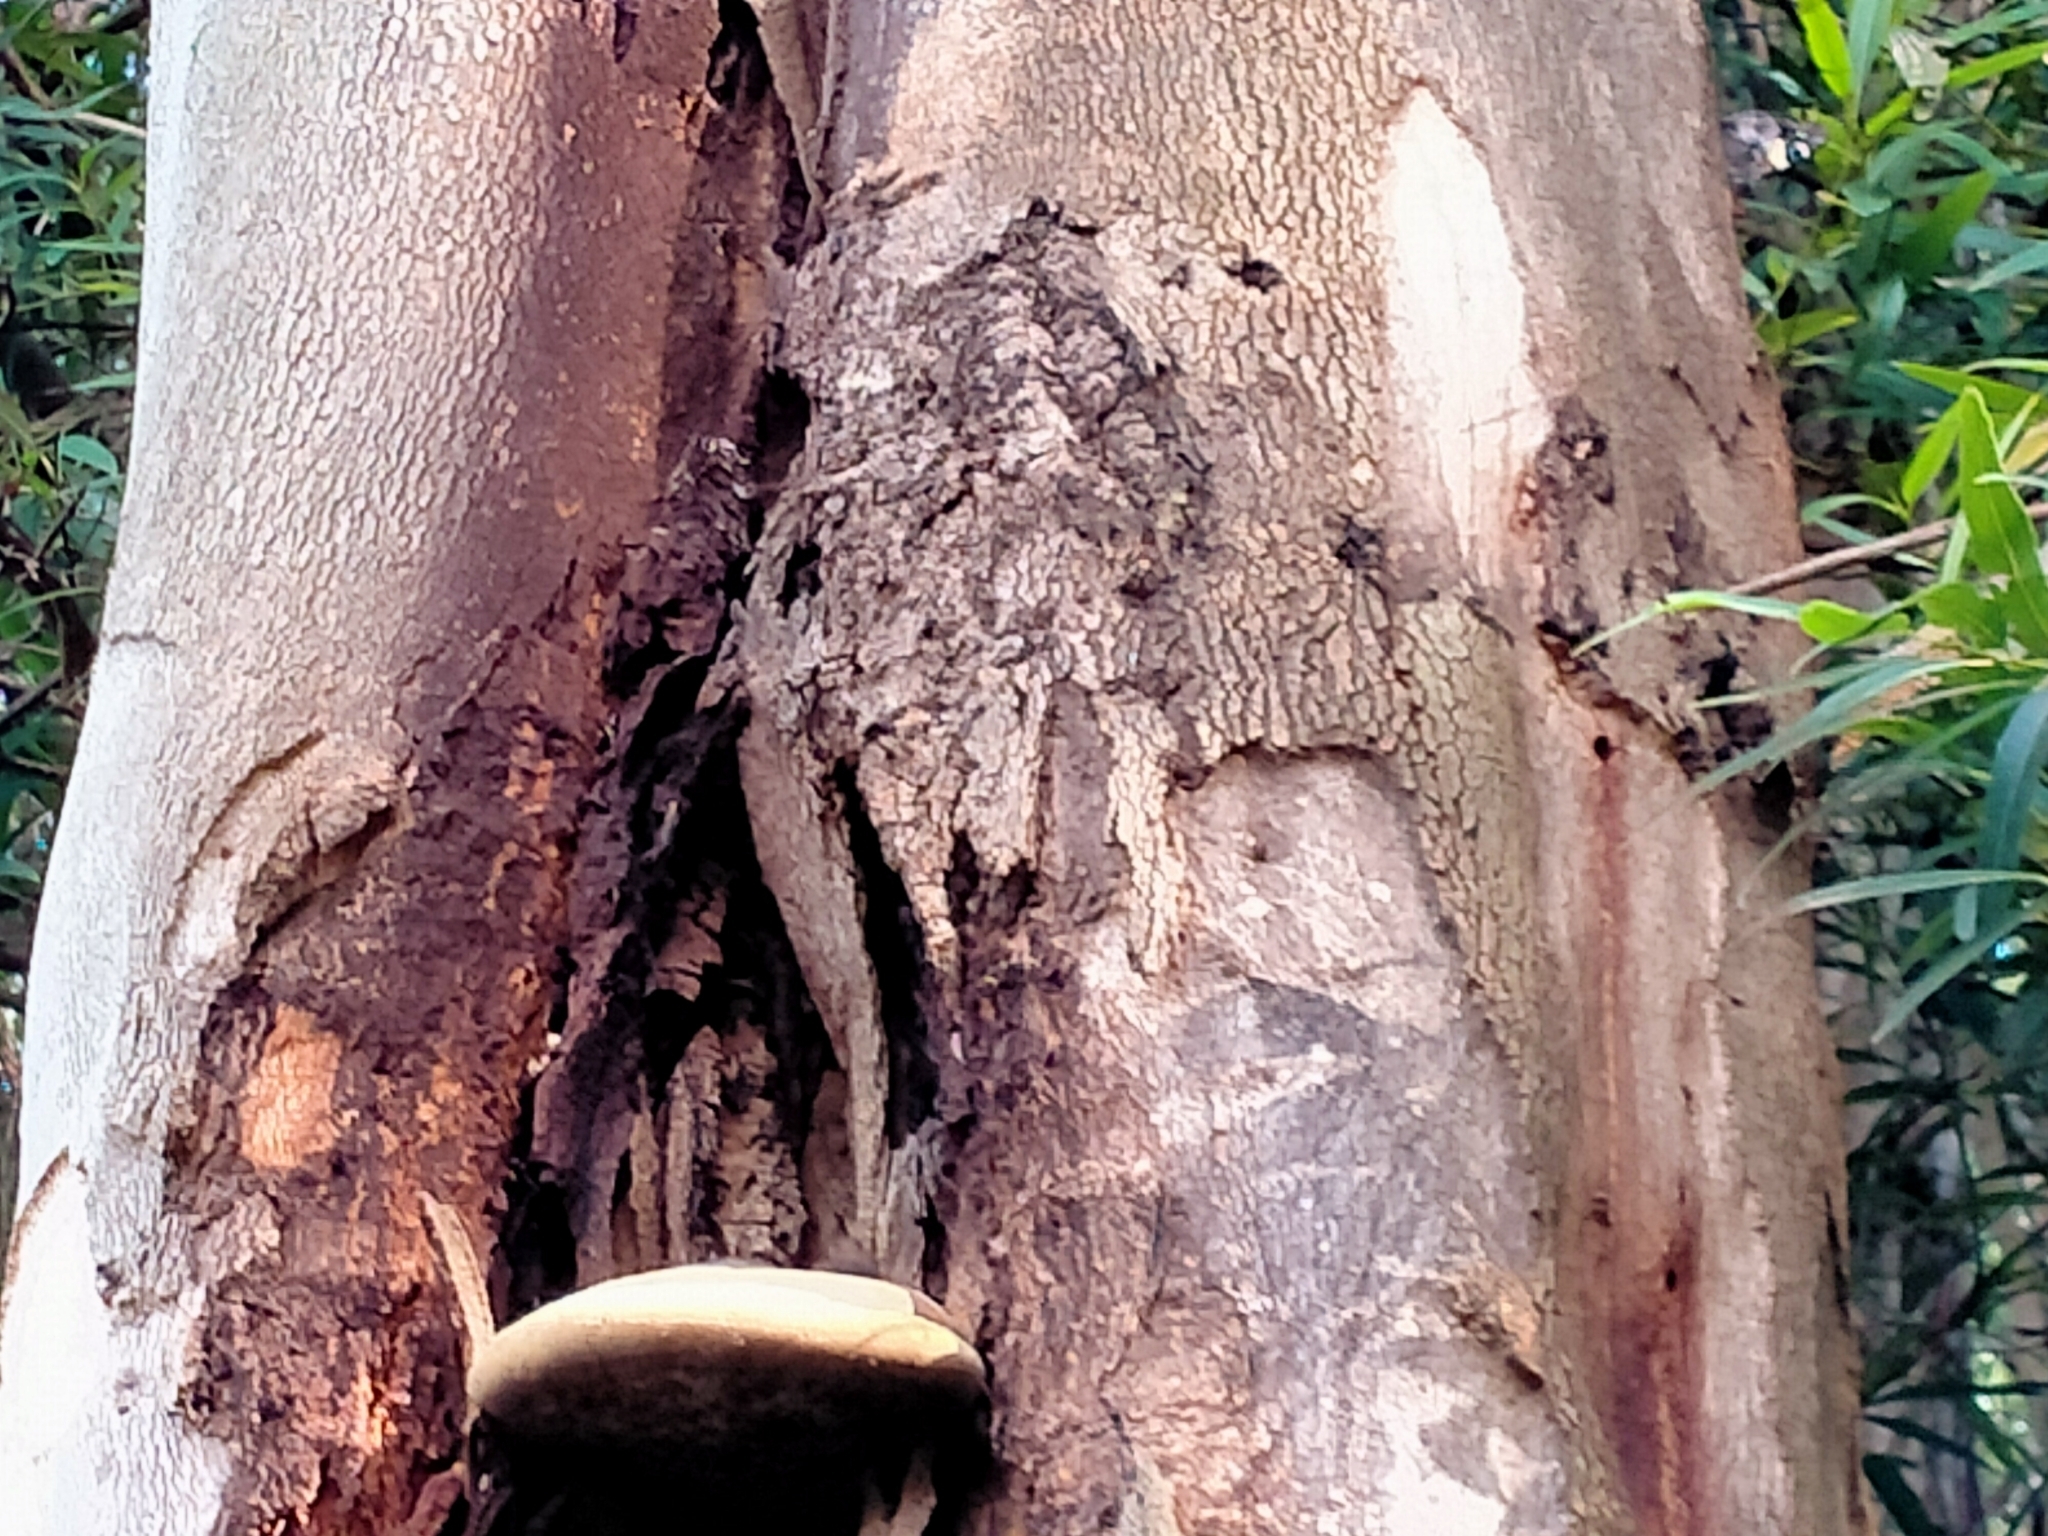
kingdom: Animalia
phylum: Arthropoda
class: Insecta
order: Lepidoptera
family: Nymphalidae
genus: Vanessa
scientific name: Vanessa itea
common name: Yellow admiral
